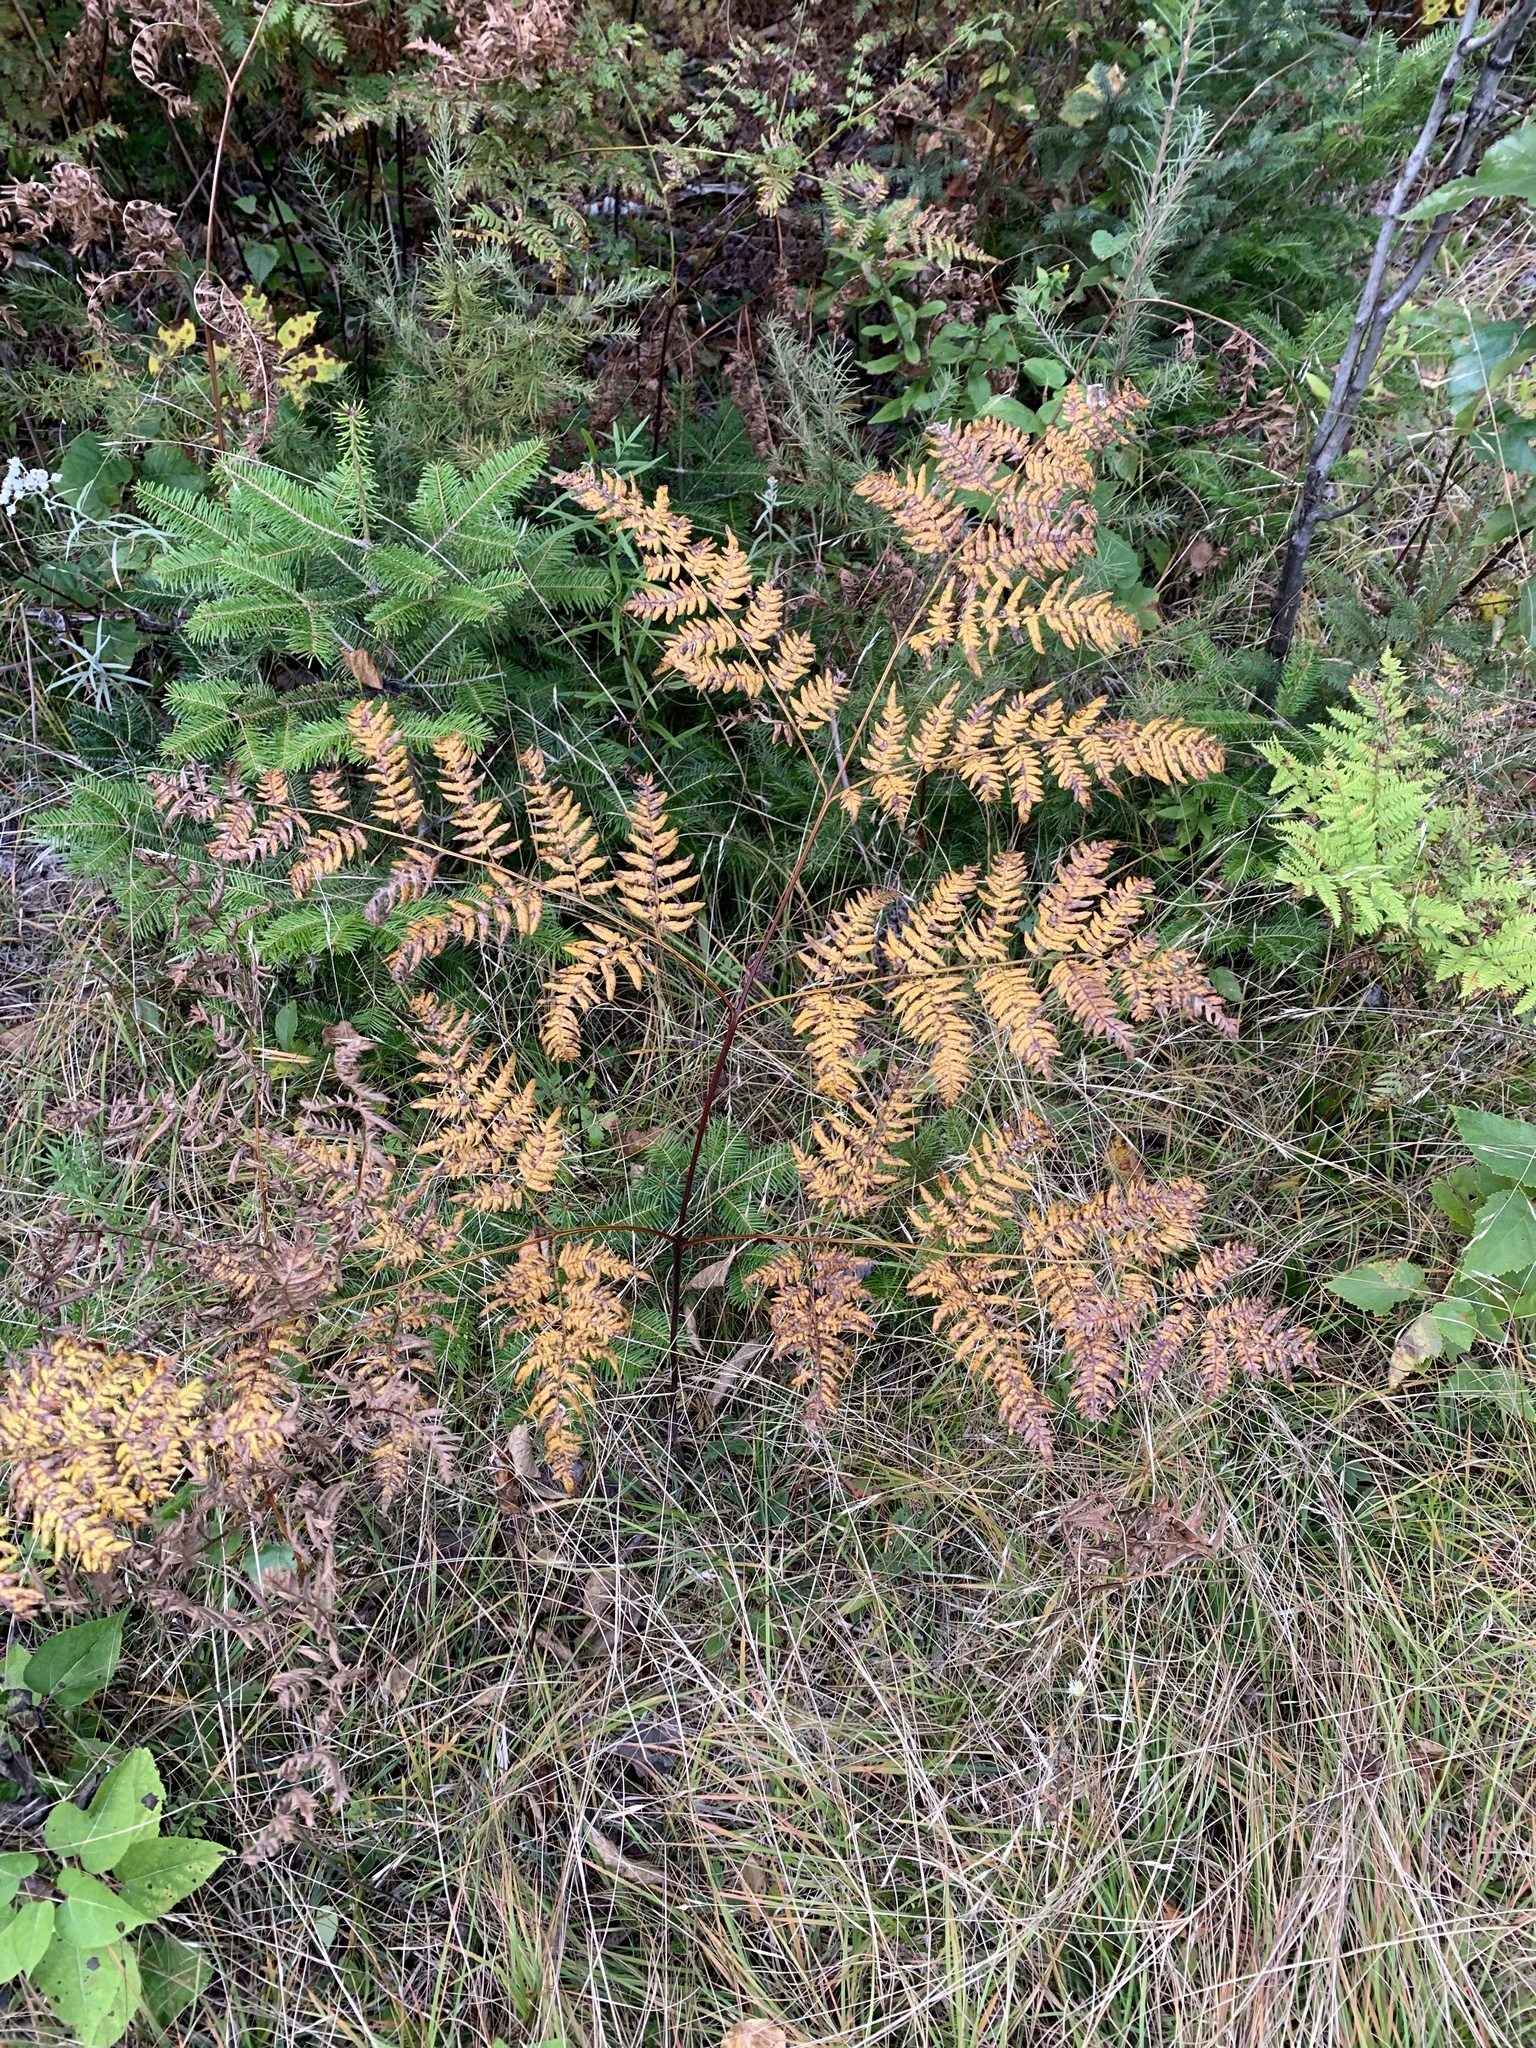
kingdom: Plantae
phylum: Tracheophyta
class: Polypodiopsida
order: Polypodiales
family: Dennstaedtiaceae
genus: Pteridium
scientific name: Pteridium aquilinum
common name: Bracken
